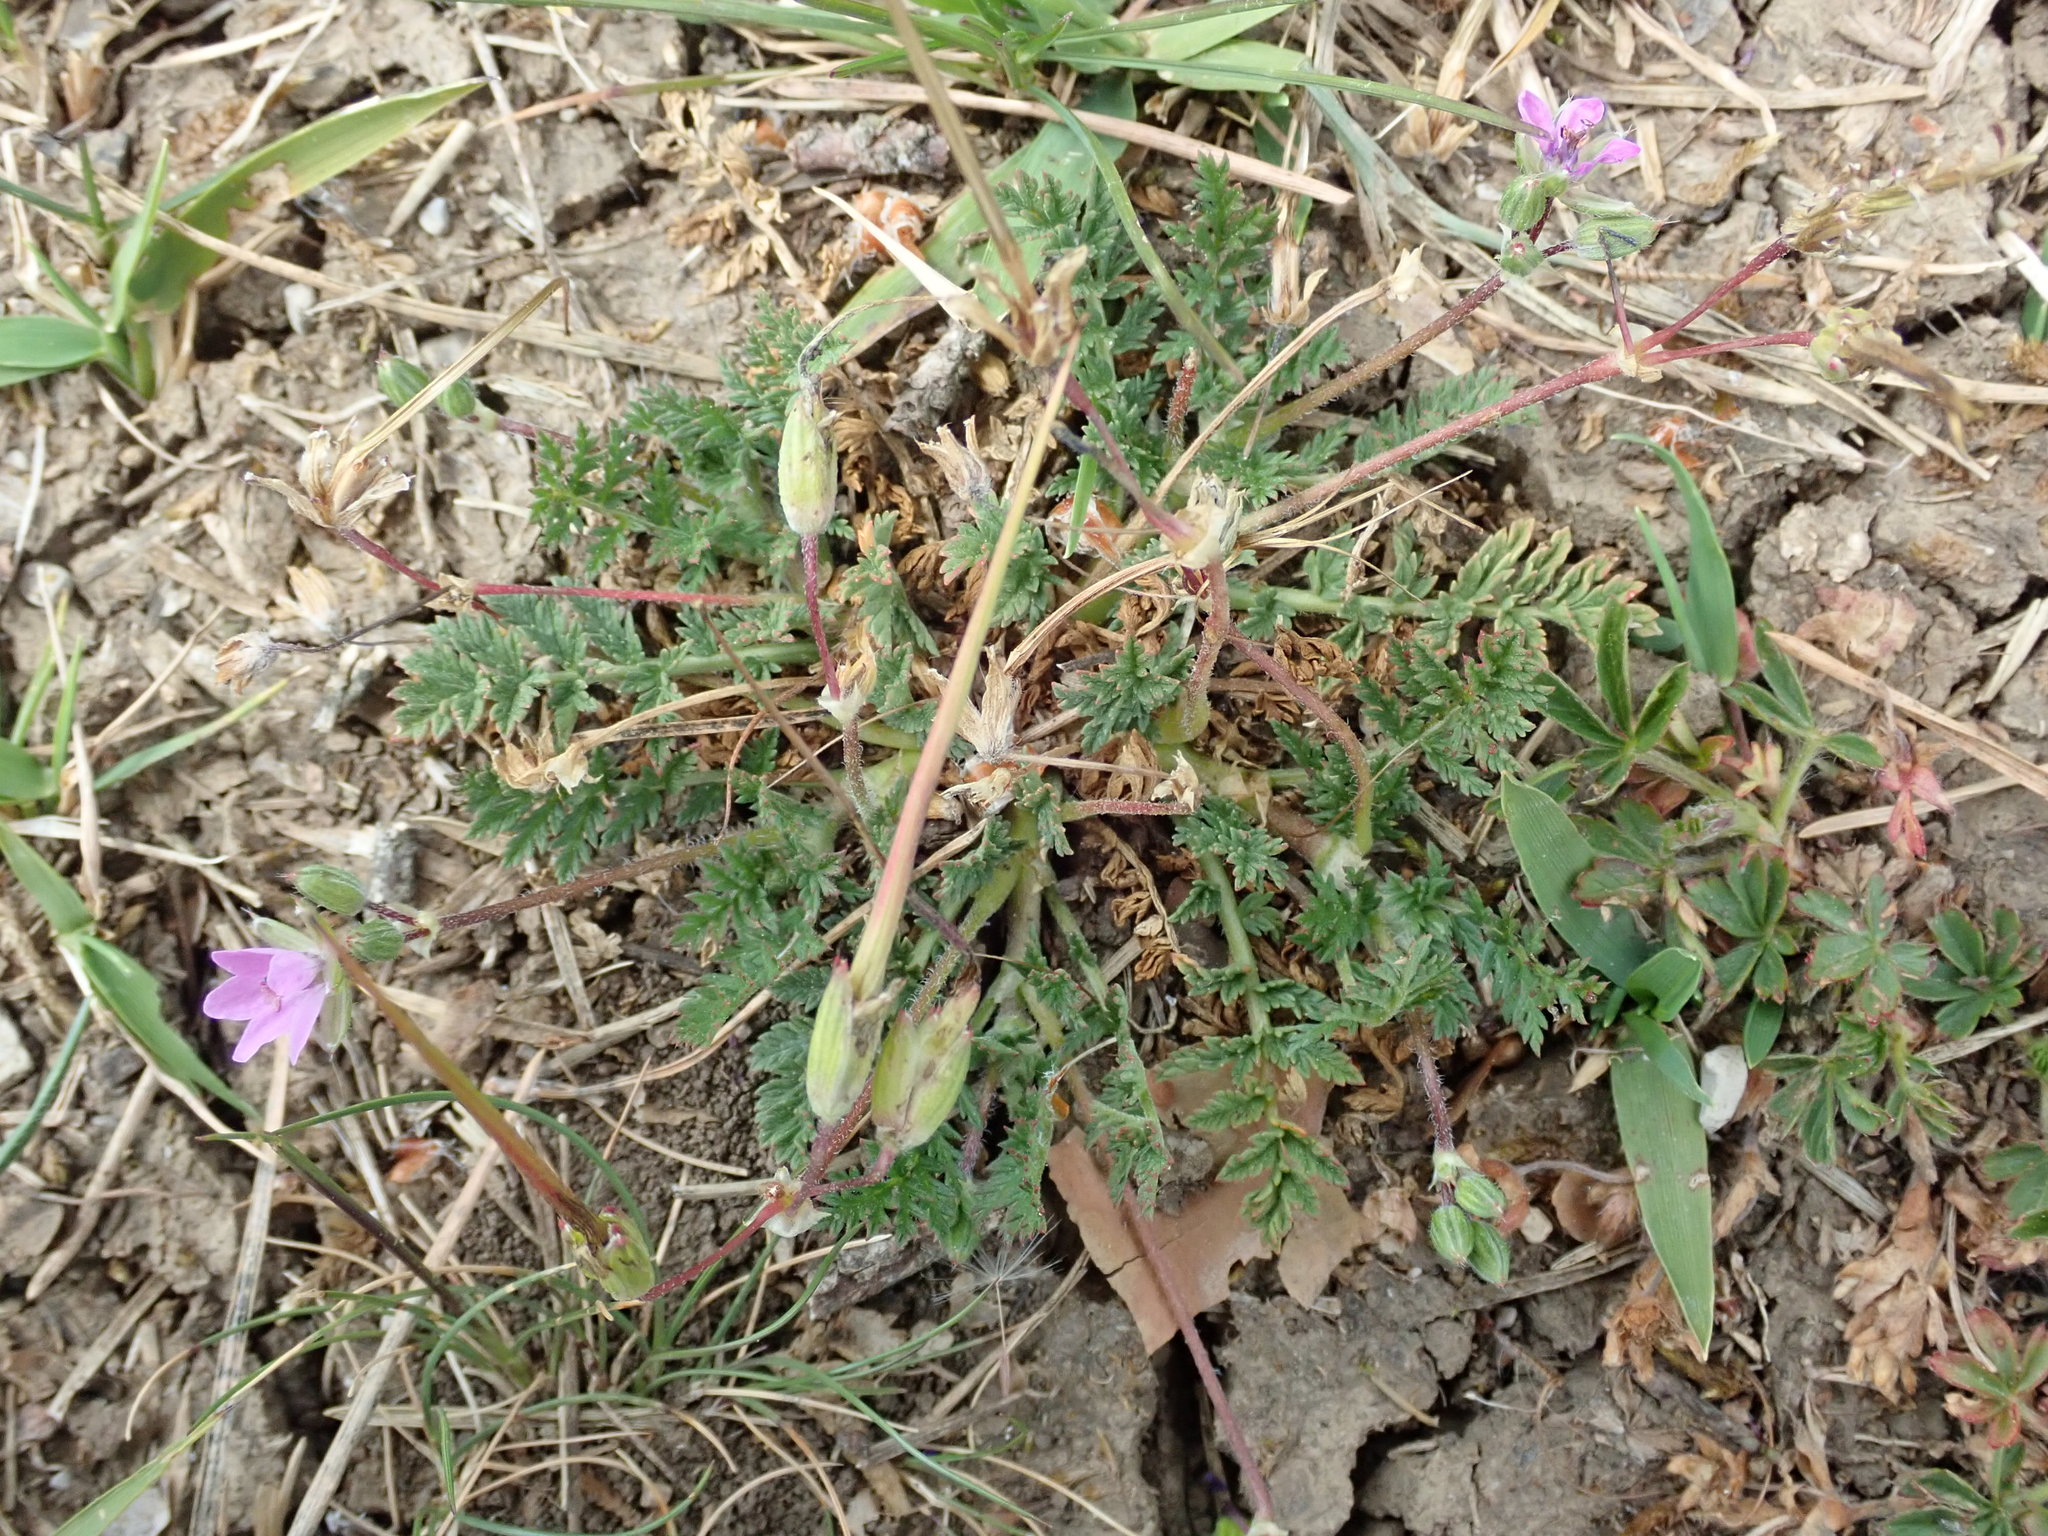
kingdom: Plantae
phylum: Tracheophyta
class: Magnoliopsida
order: Geraniales
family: Geraniaceae
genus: Erodium
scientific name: Erodium cicutarium
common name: Common stork's-bill
